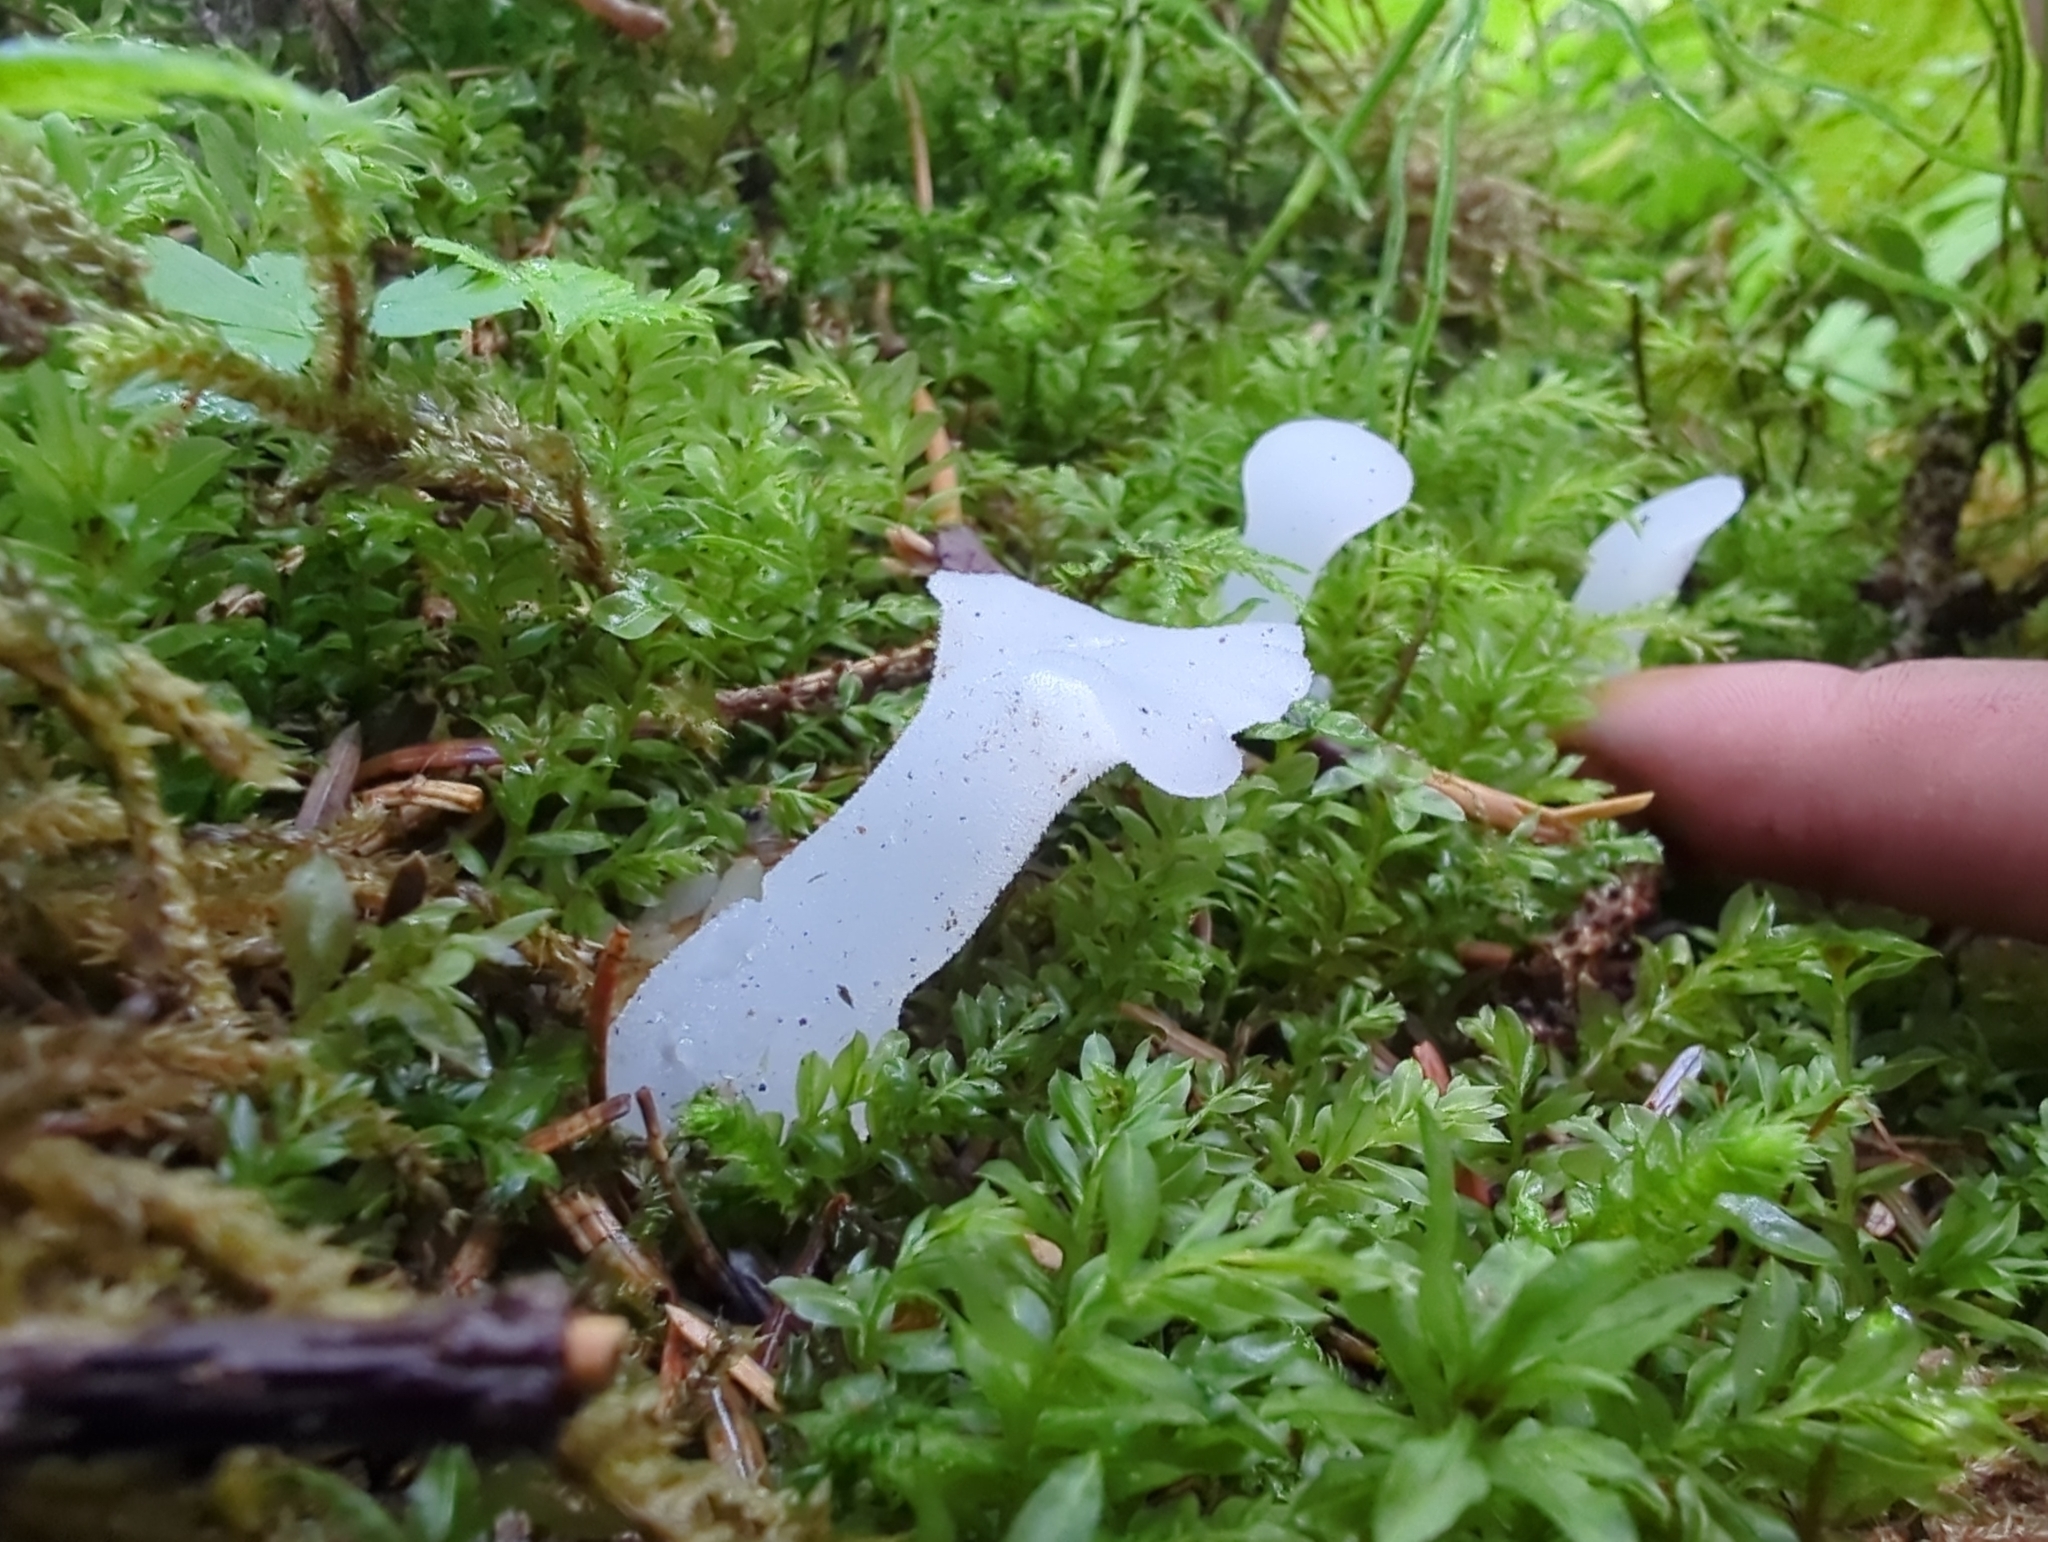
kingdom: Fungi
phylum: Basidiomycota
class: Agaricomycetes
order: Auriculariales
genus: Pseudohydnum
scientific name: Pseudohydnum gelatinosum
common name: Jelly tongue
